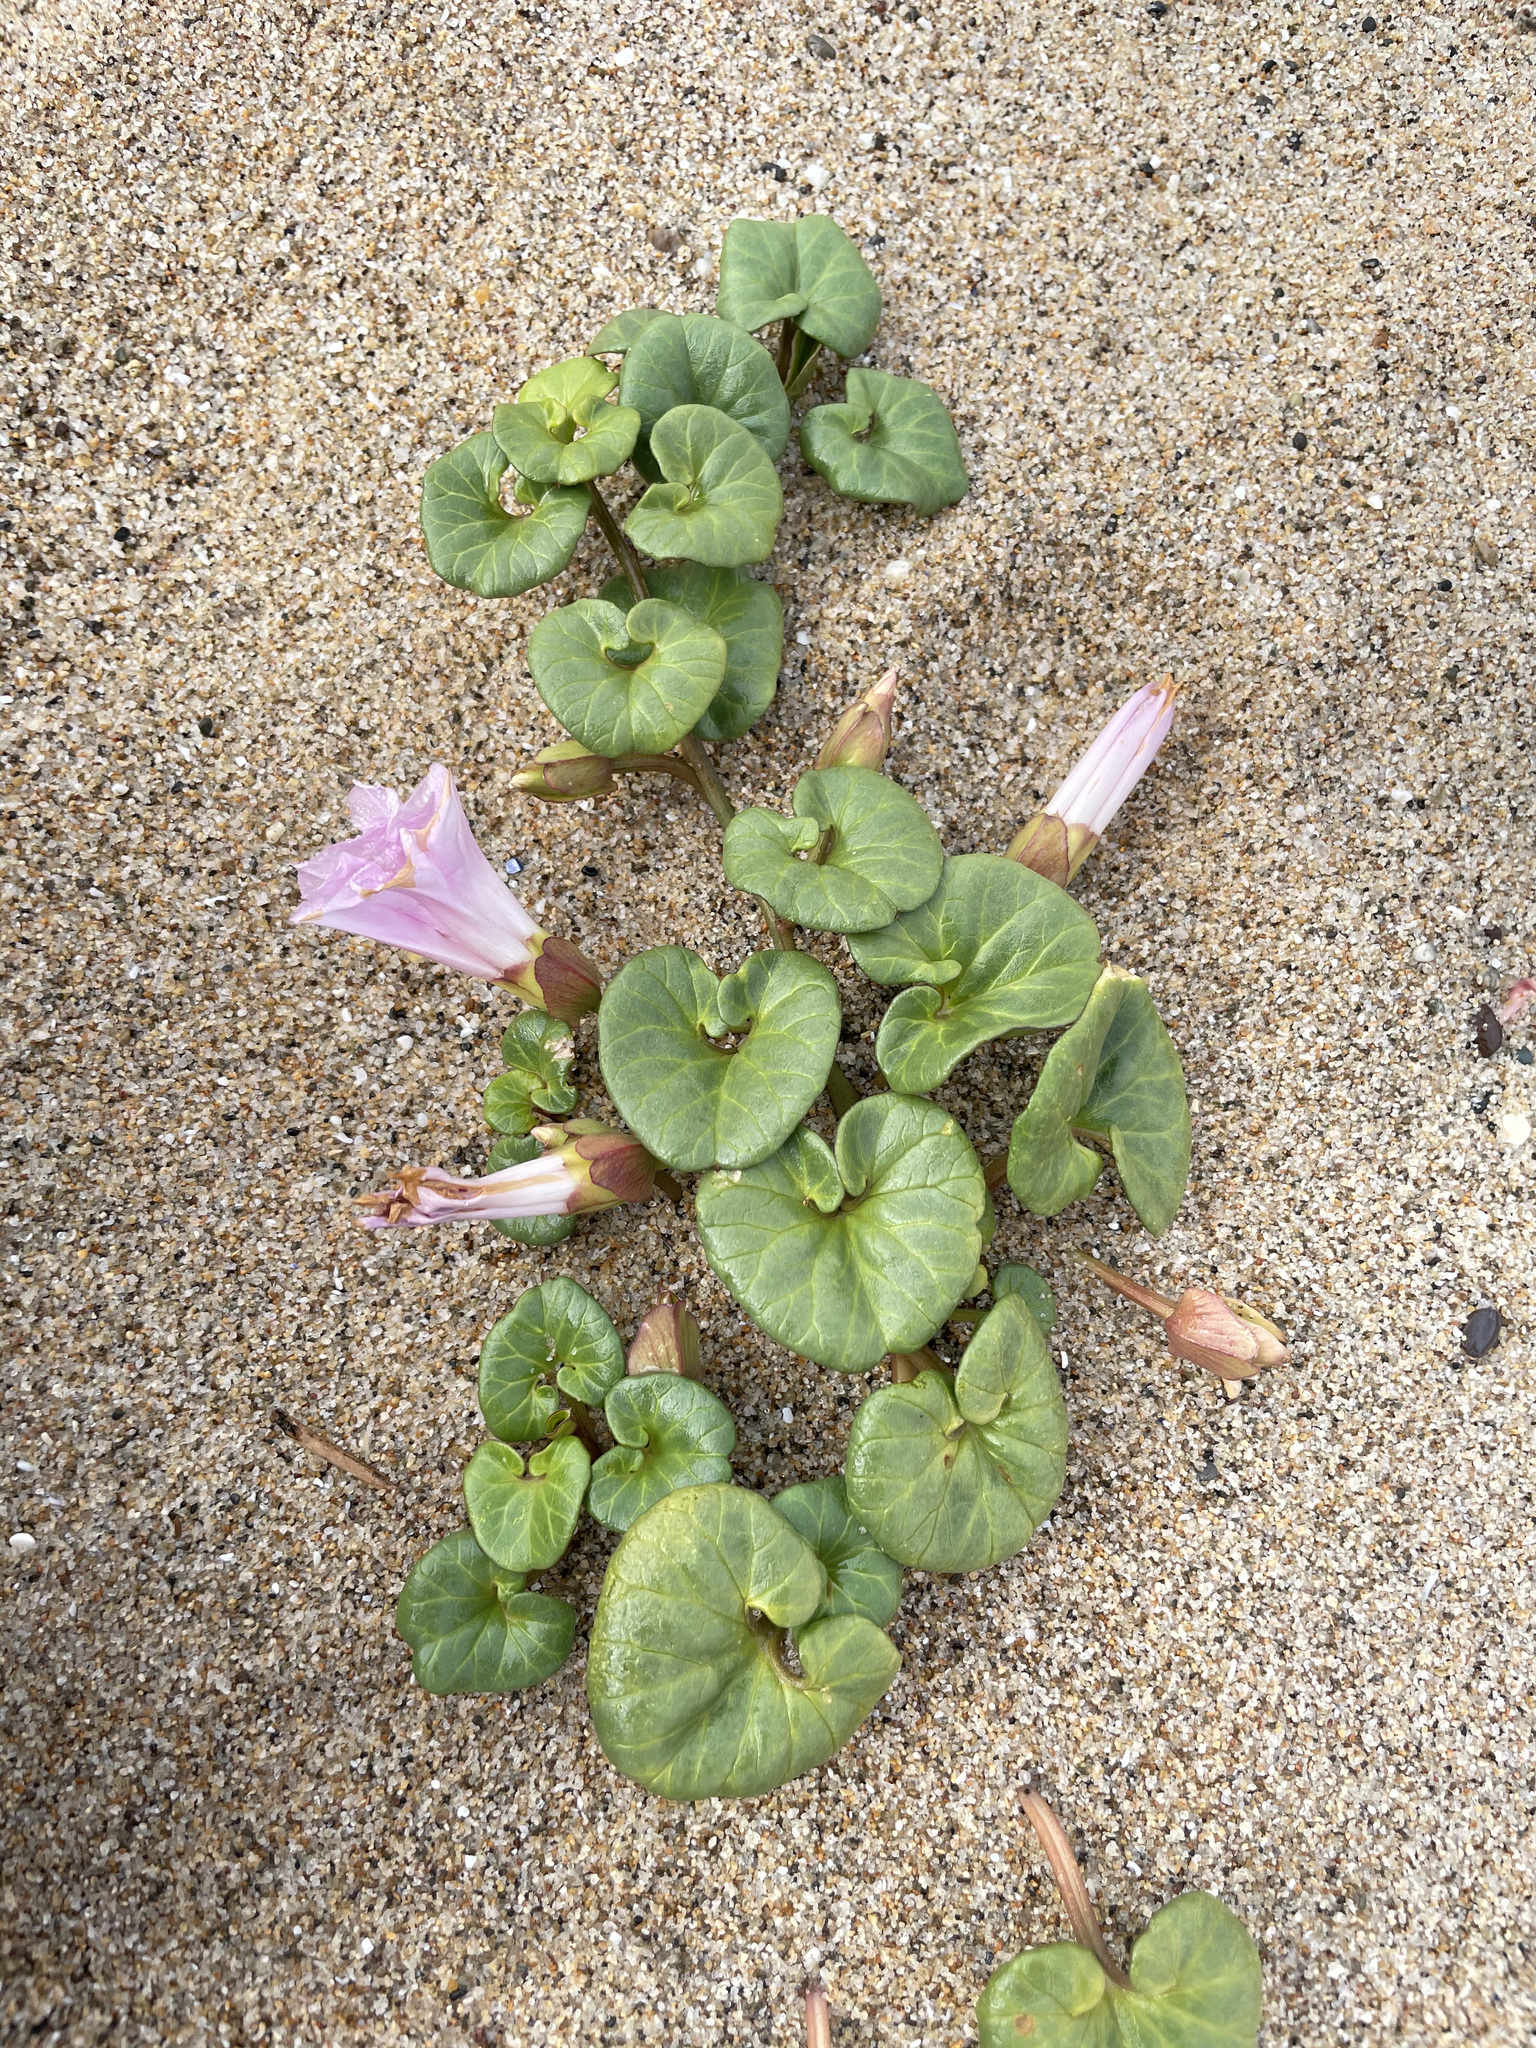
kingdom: Plantae
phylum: Tracheophyta
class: Magnoliopsida
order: Solanales
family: Convolvulaceae
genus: Calystegia
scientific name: Calystegia soldanella
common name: Sea bindweed
